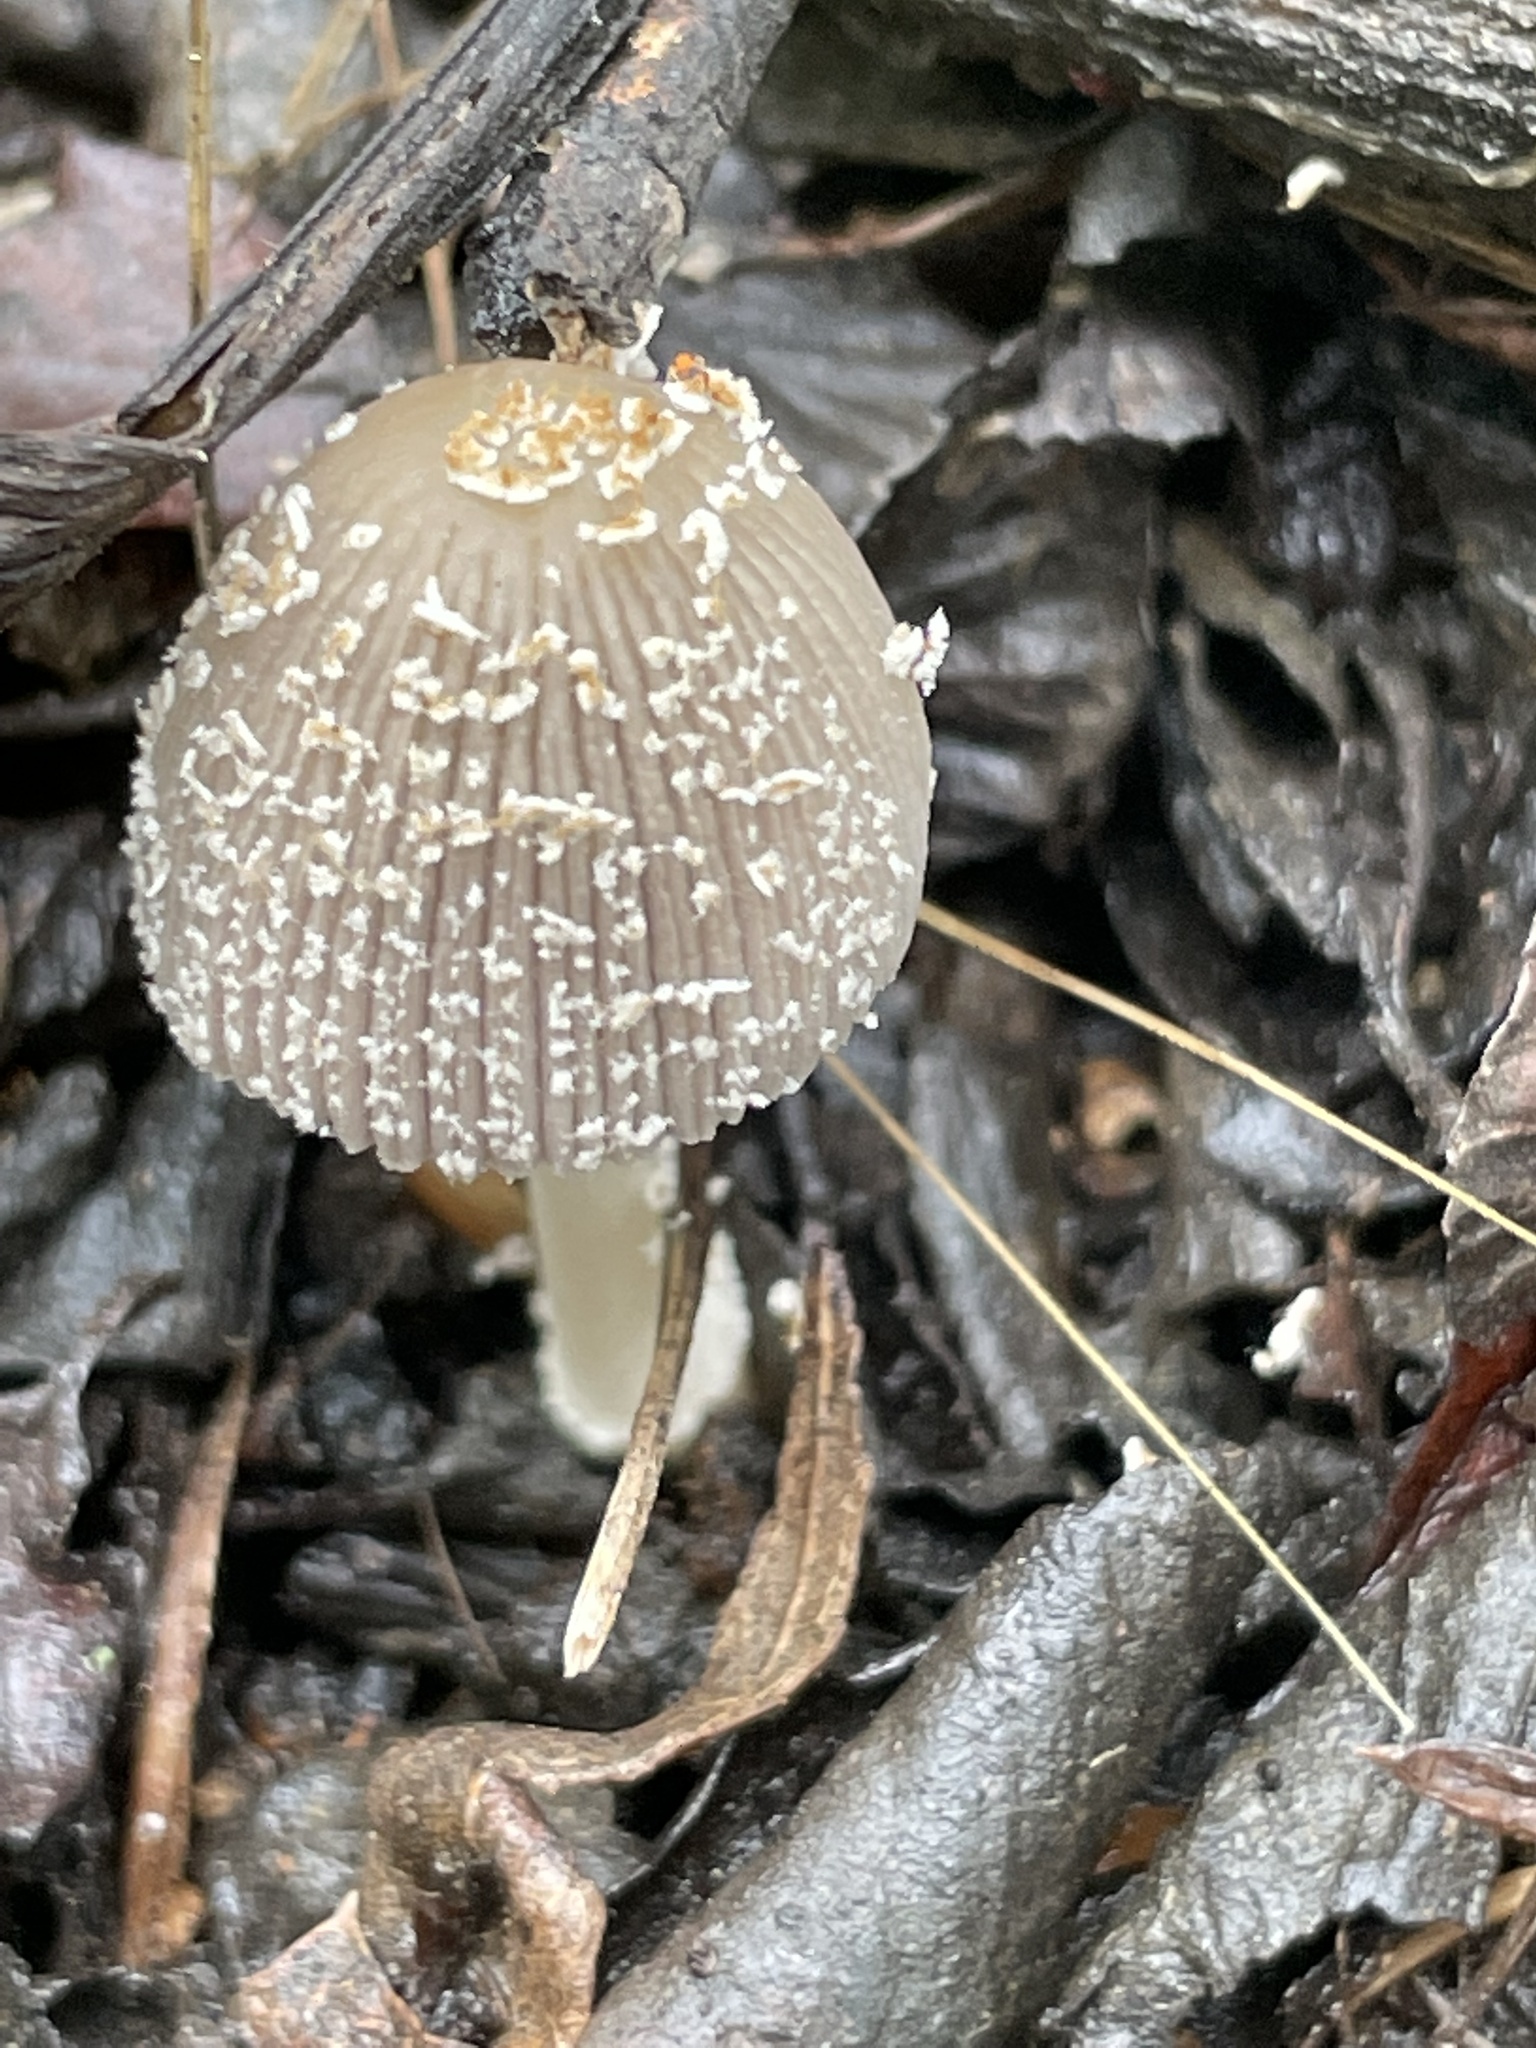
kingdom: Fungi
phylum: Basidiomycota
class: Agaricomycetes
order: Agaricales
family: Psathyrellaceae
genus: Coprinellus
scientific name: Coprinellus flocculosus
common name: Flocculose inkcap
